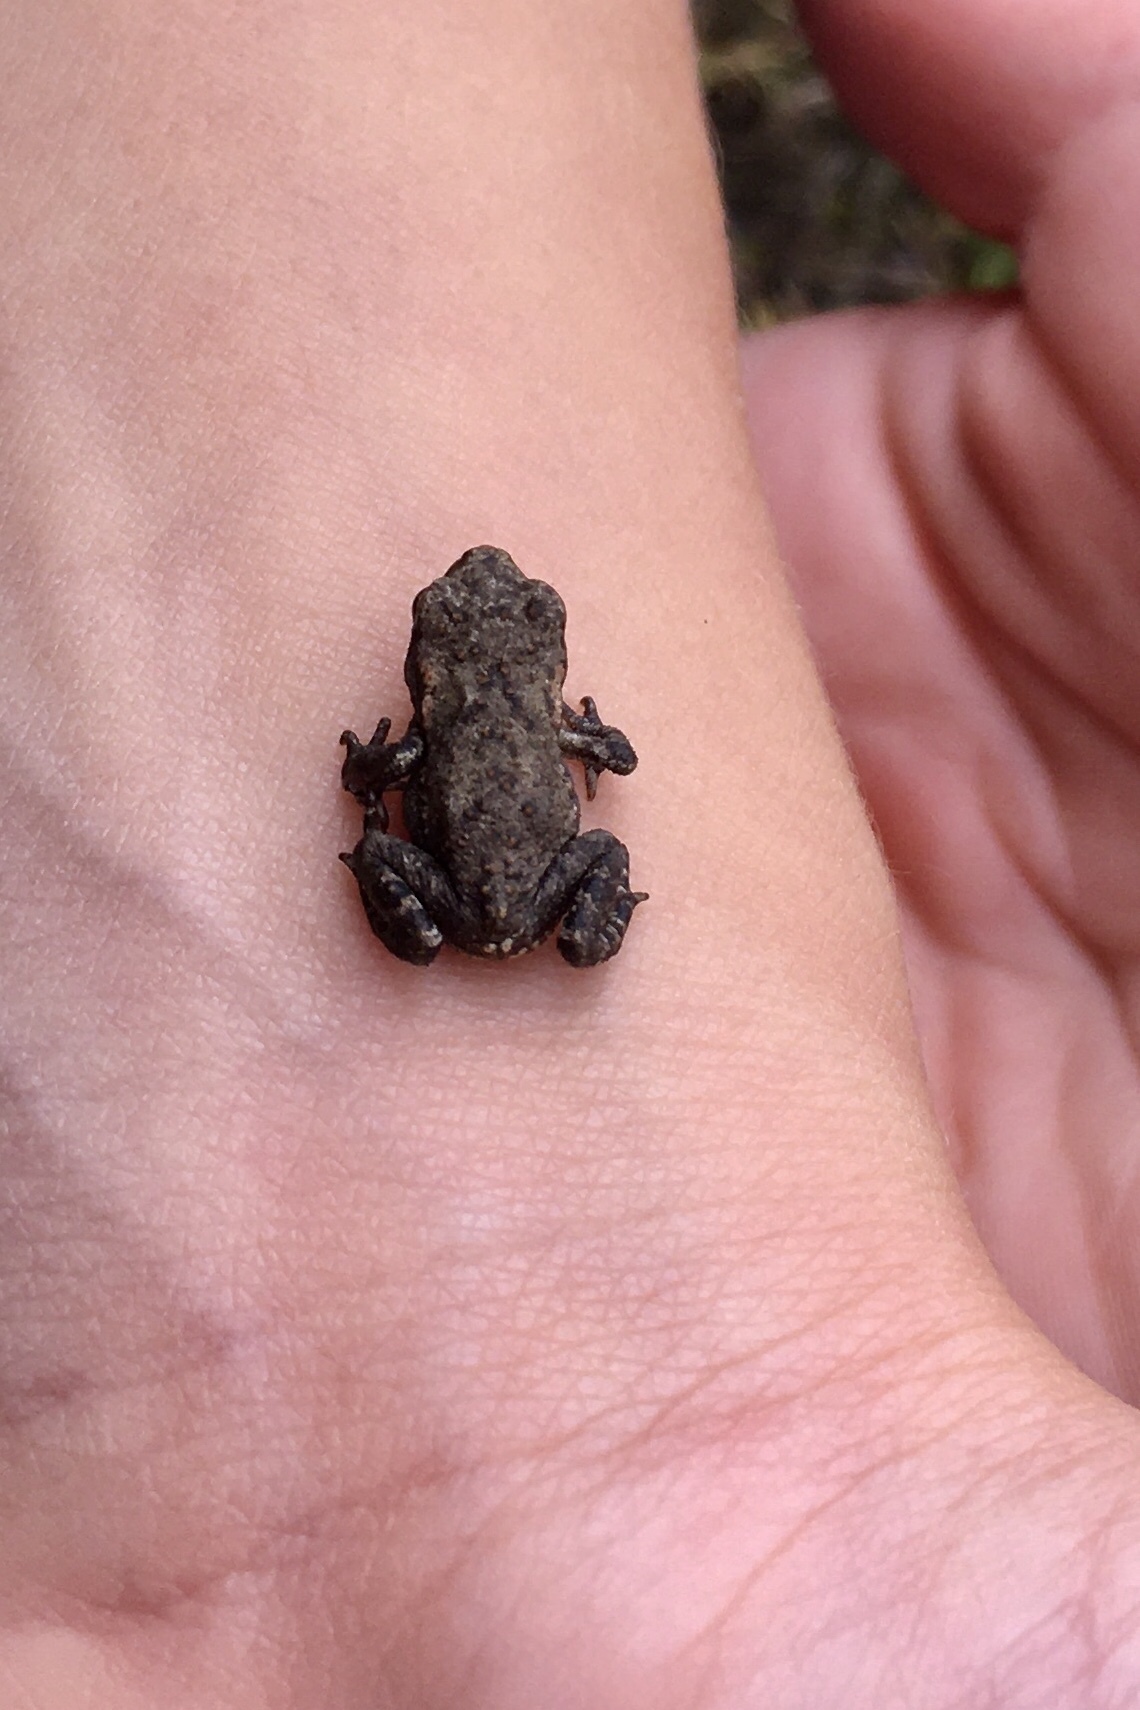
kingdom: Animalia
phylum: Chordata
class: Amphibia
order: Anura
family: Bufonidae
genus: Bufo
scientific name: Bufo
